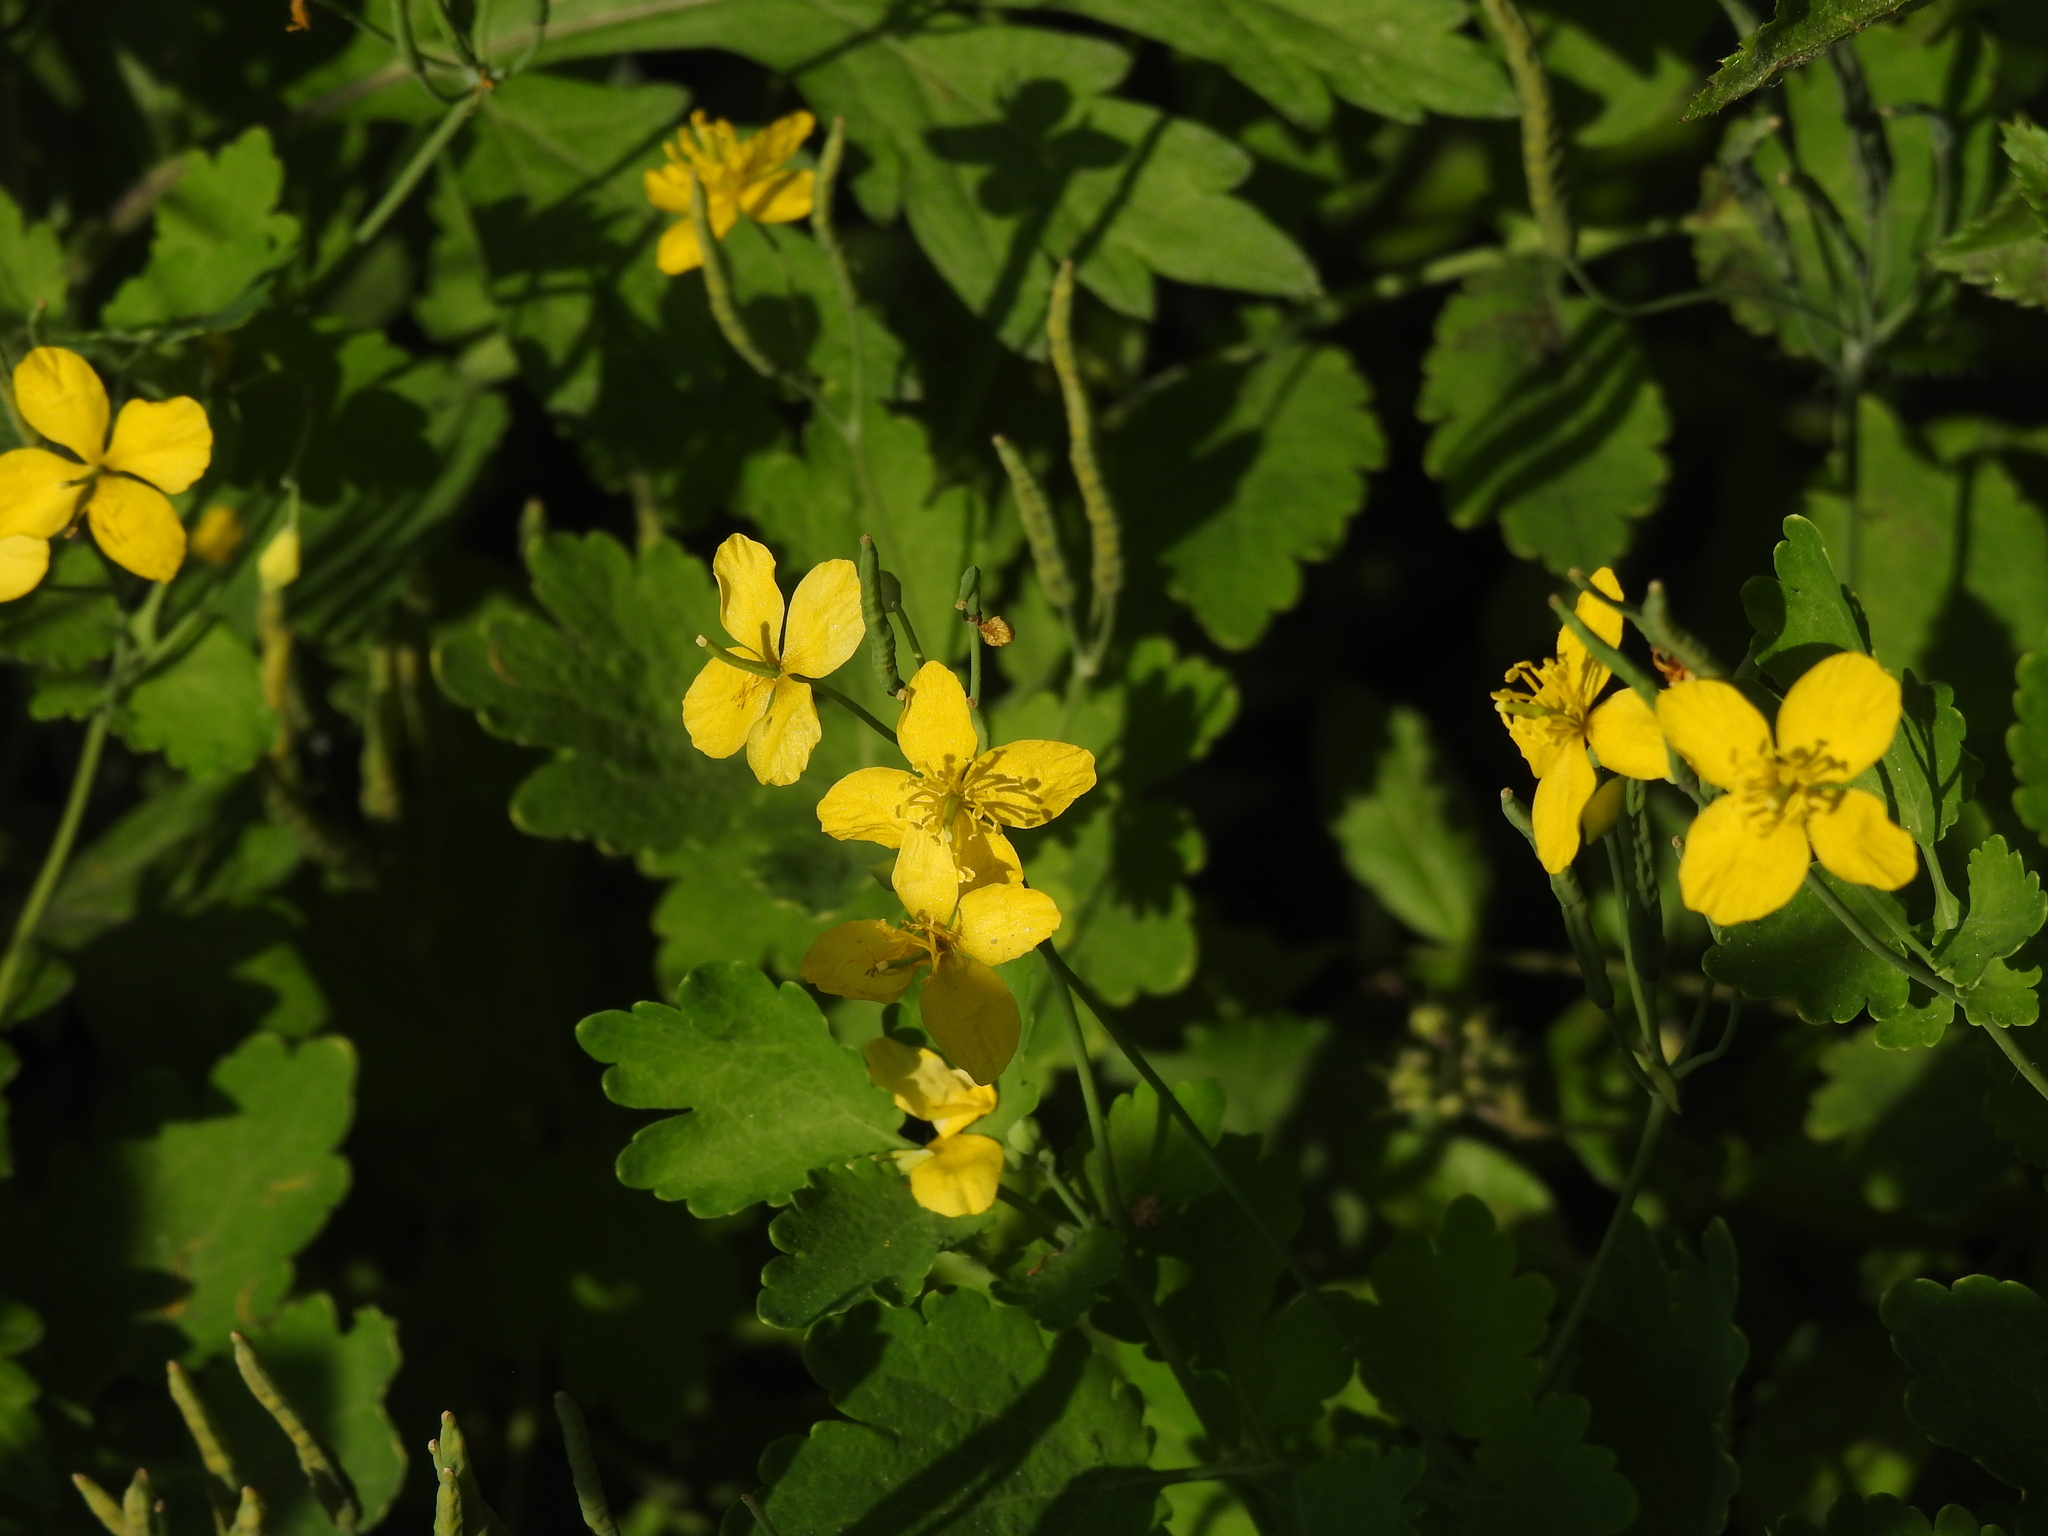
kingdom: Plantae
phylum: Tracheophyta
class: Magnoliopsida
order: Ranunculales
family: Papaveraceae
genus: Chelidonium
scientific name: Chelidonium majus
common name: Greater celandine
